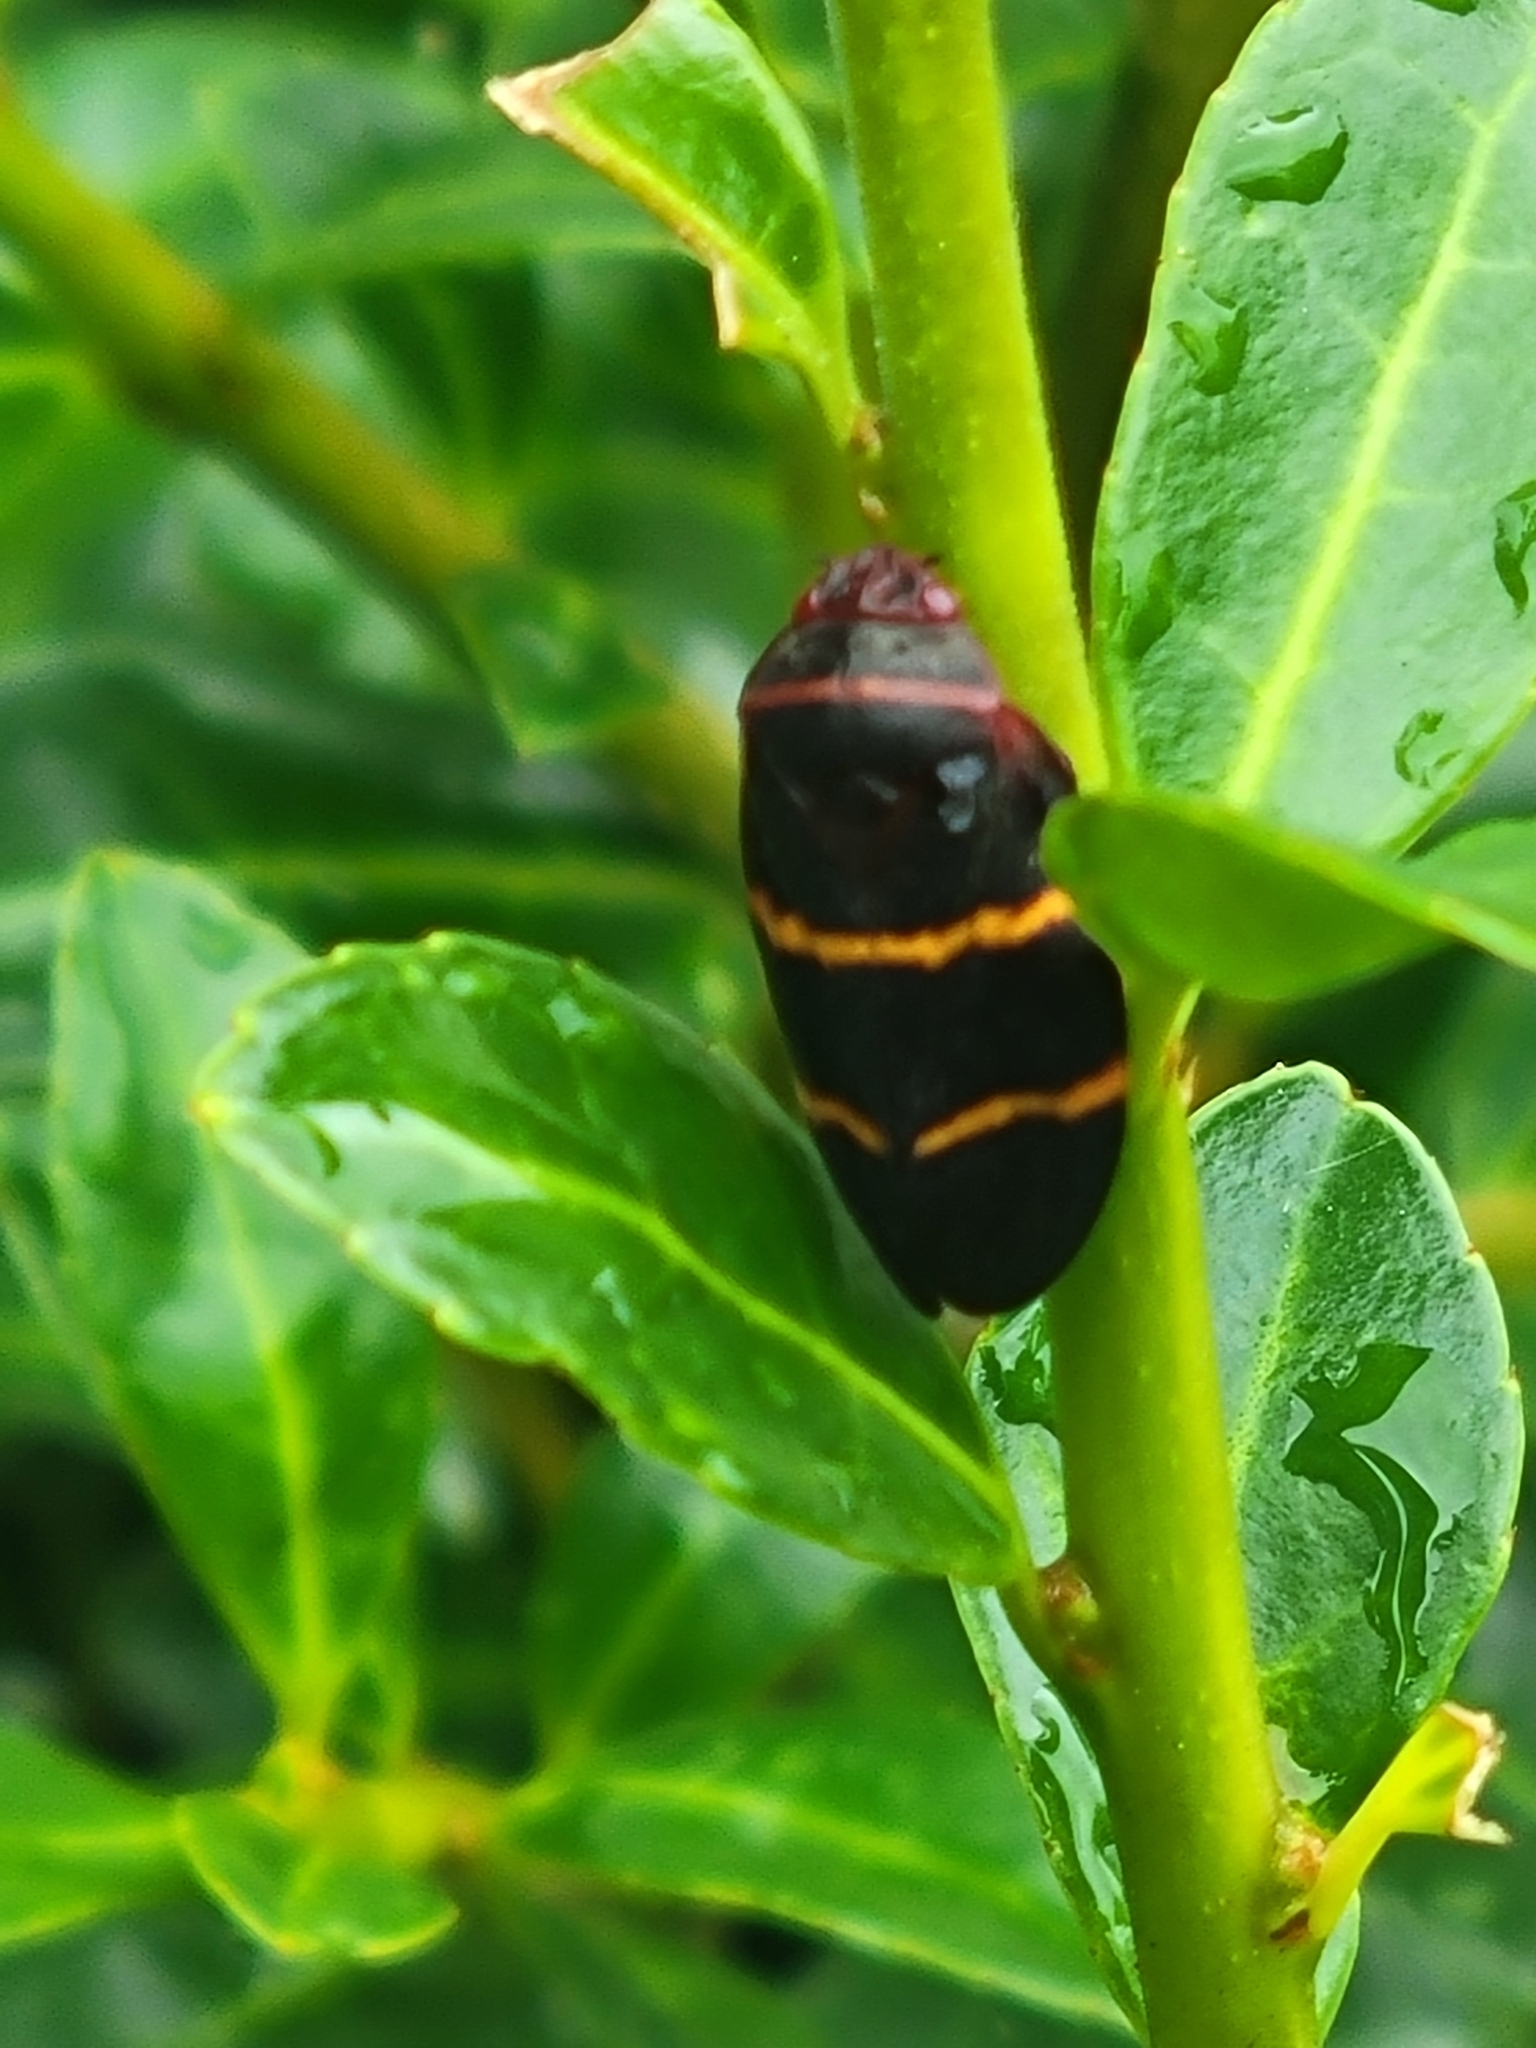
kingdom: Animalia
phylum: Arthropoda
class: Insecta
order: Hemiptera
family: Cercopidae
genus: Prosapia
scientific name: Prosapia bicincta
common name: Twolined spittlebug
